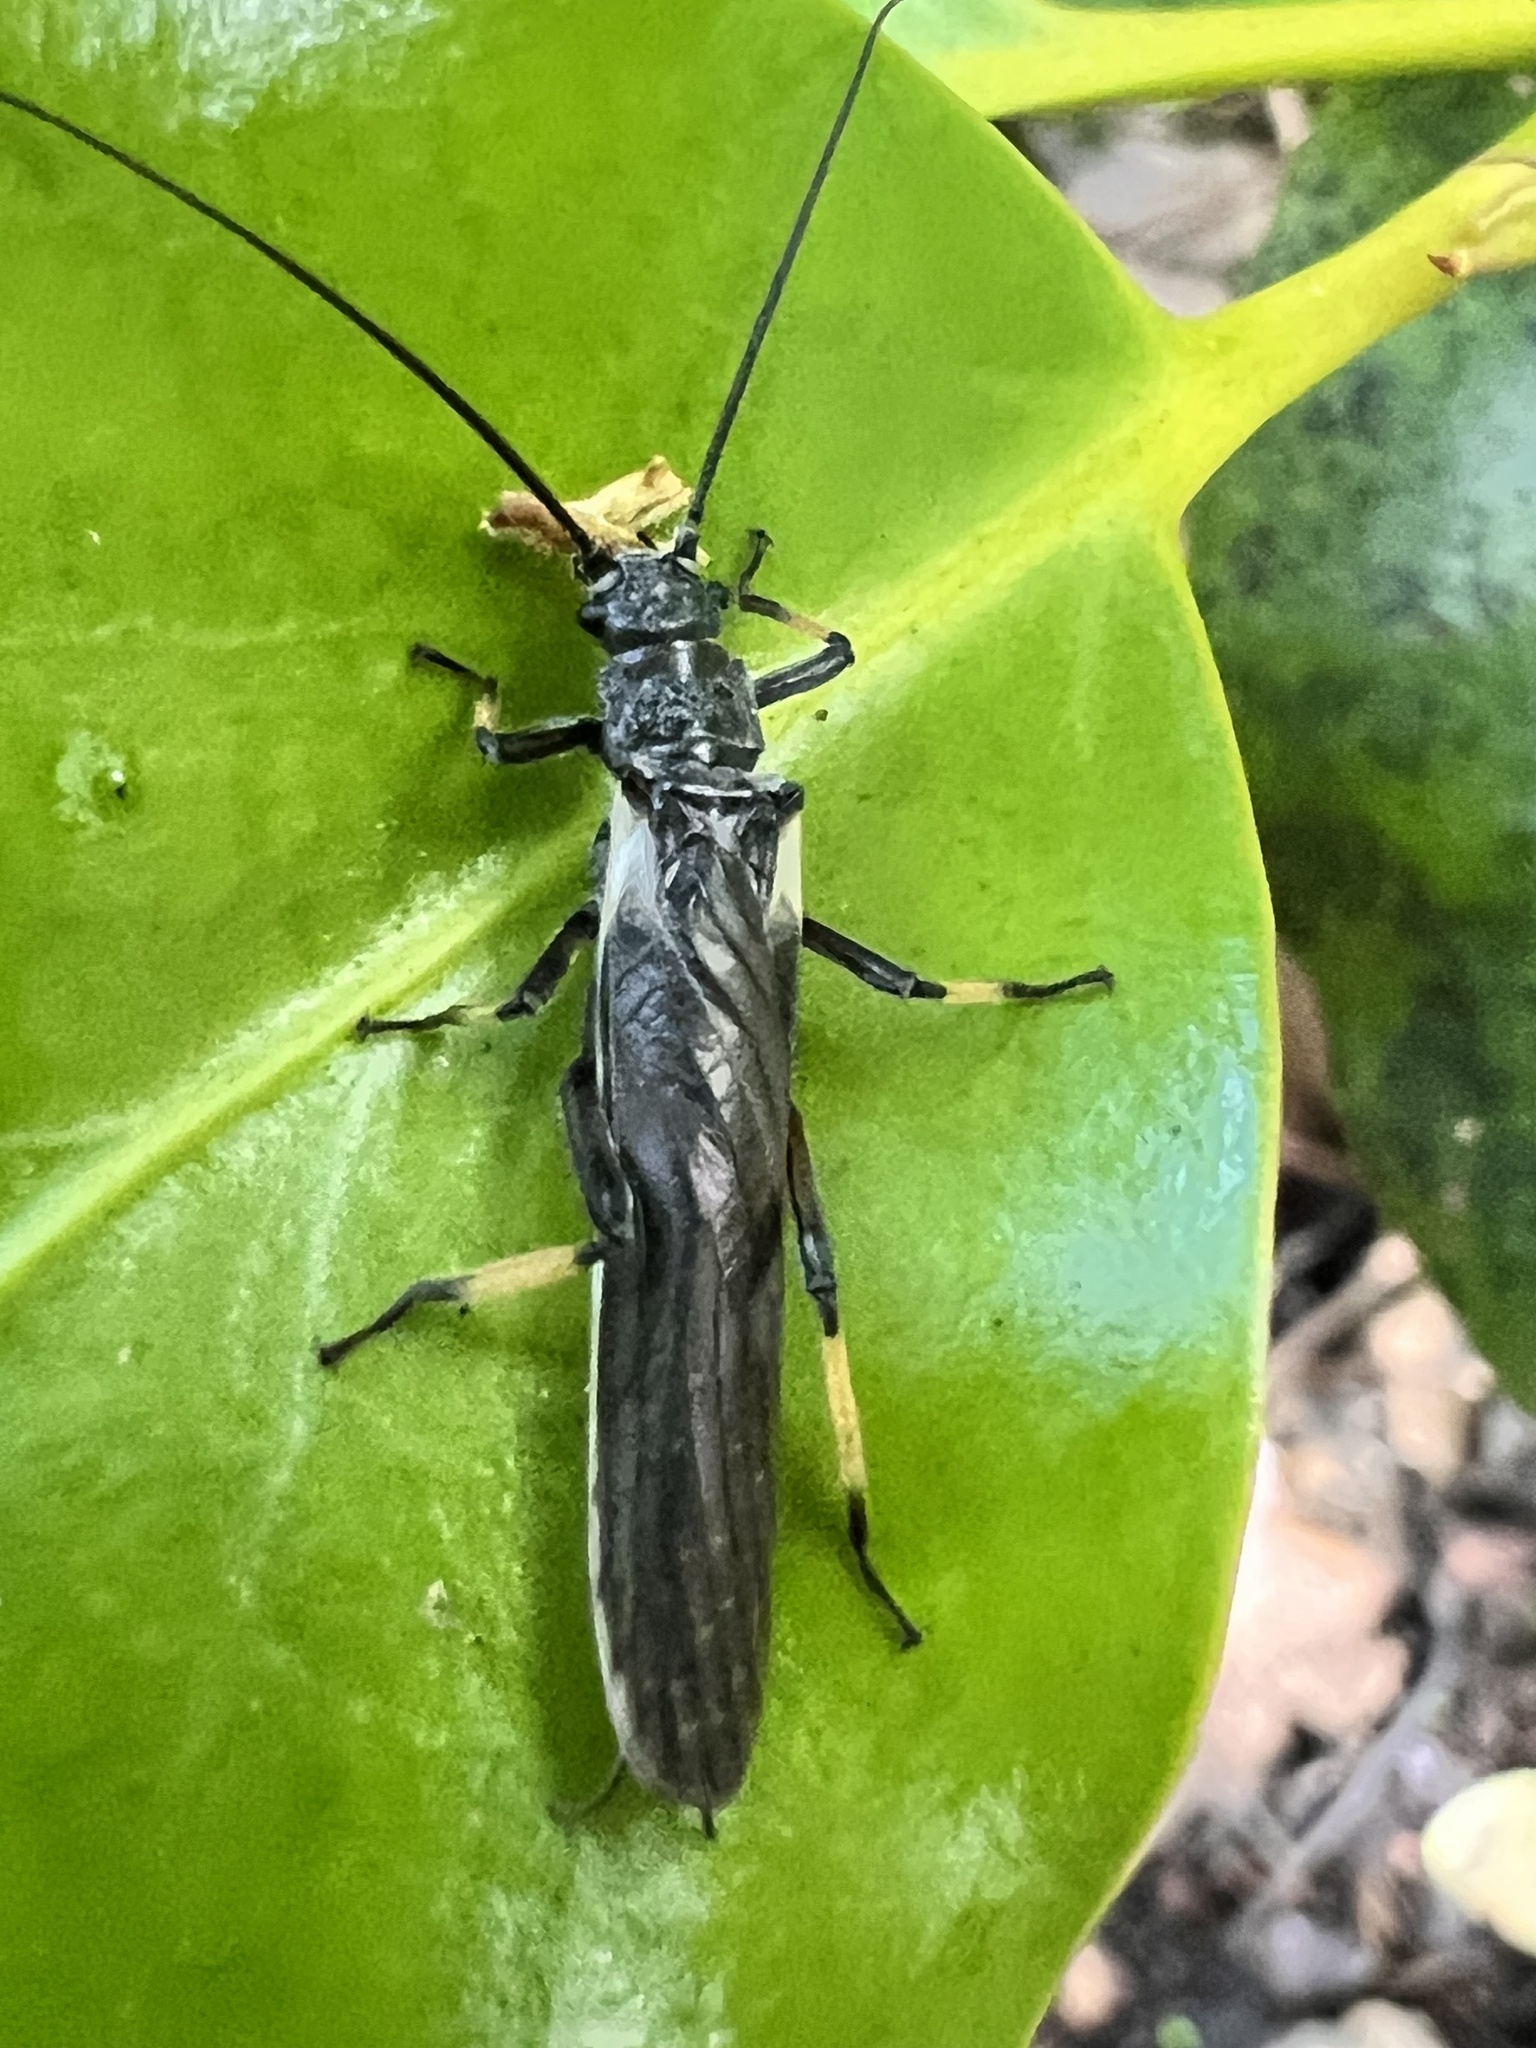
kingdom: Animalia
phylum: Arthropoda
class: Insecta
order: Plecoptera
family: Austroperlidae
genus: Austroperla
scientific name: Austroperla cyrene
